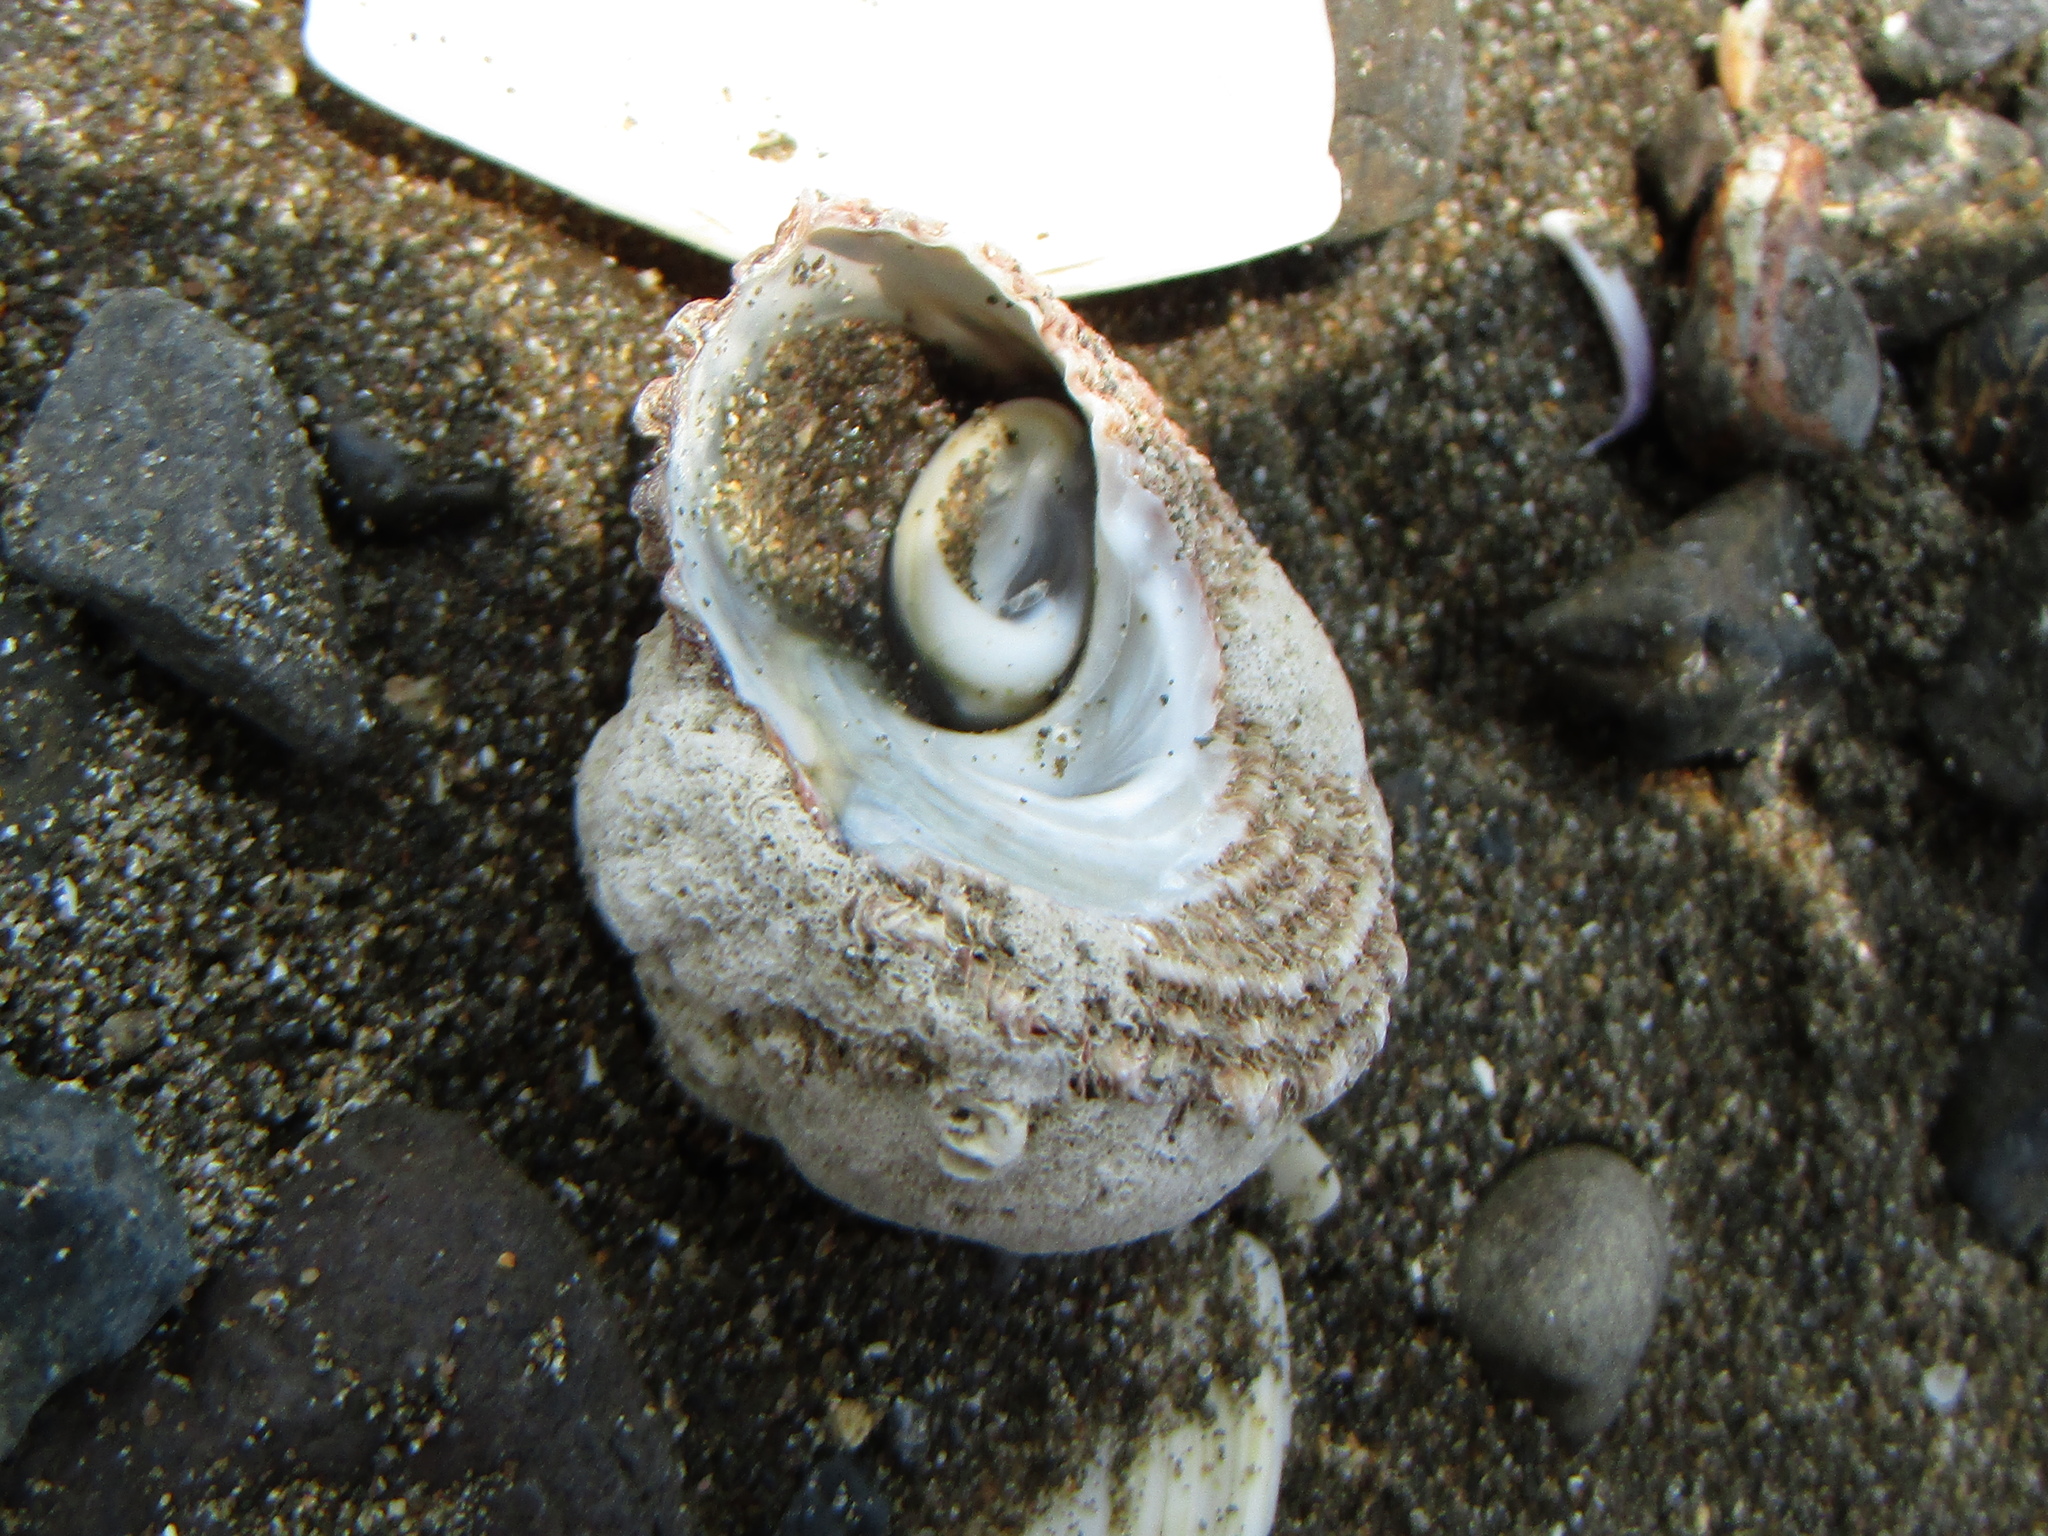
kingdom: Animalia
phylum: Mollusca
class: Gastropoda
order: Trochida
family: Turbinidae
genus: Cookia
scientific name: Cookia sulcata
